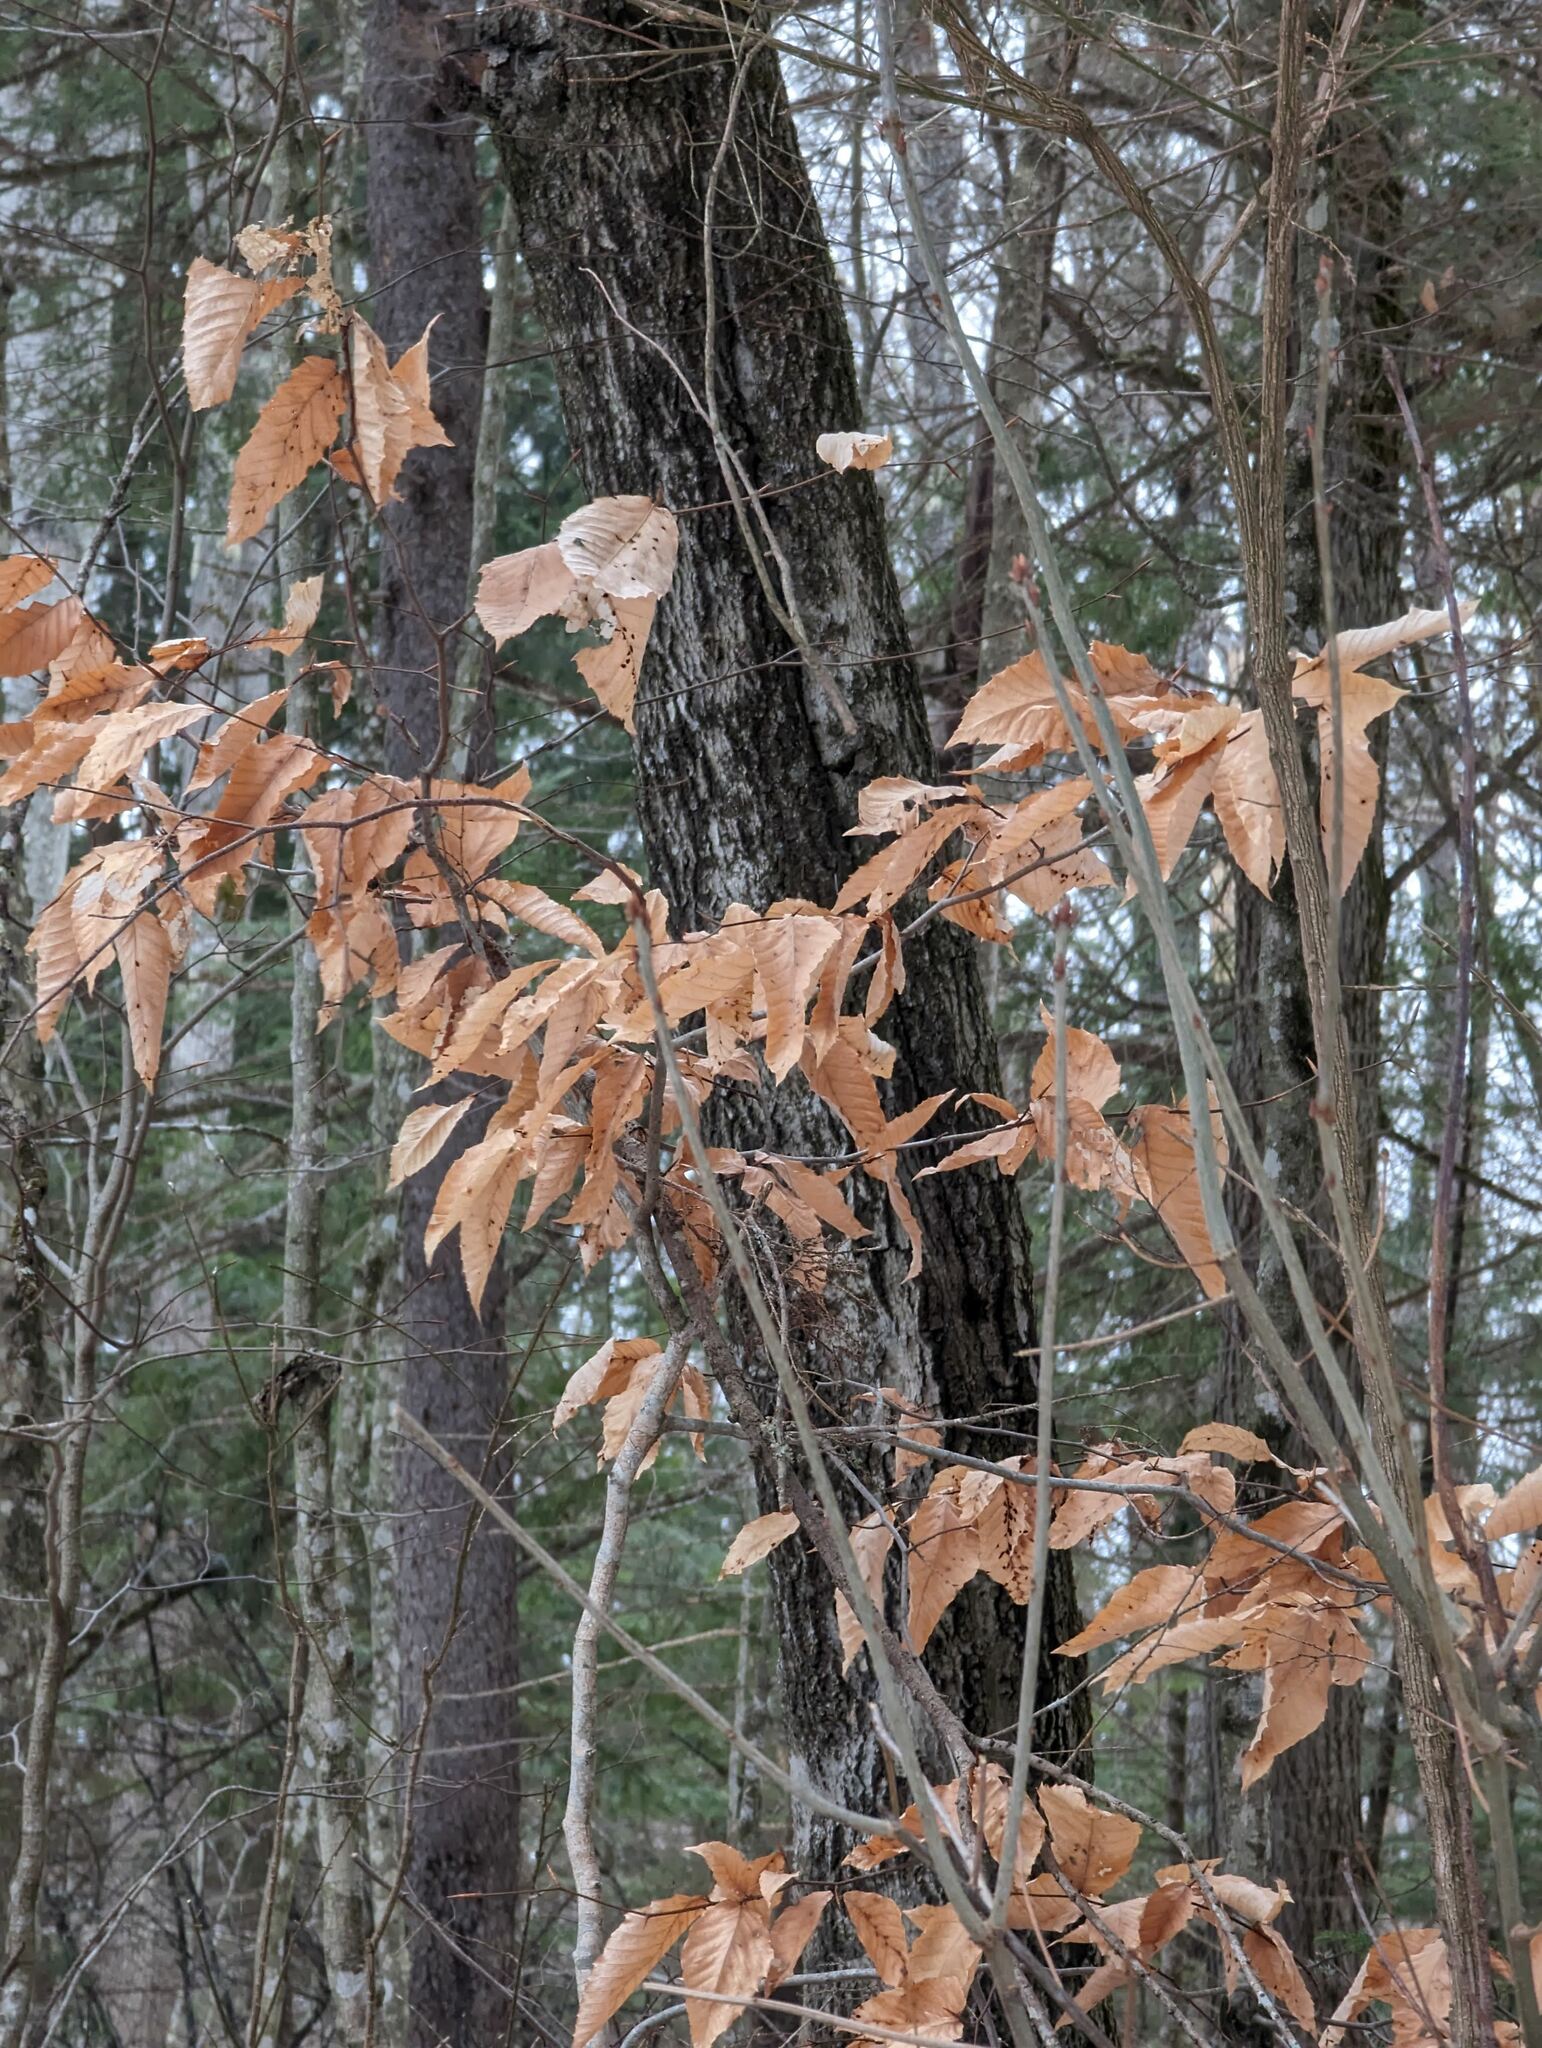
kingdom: Plantae
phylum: Tracheophyta
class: Magnoliopsida
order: Fagales
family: Fagaceae
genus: Fagus
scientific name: Fagus grandifolia
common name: American beech
